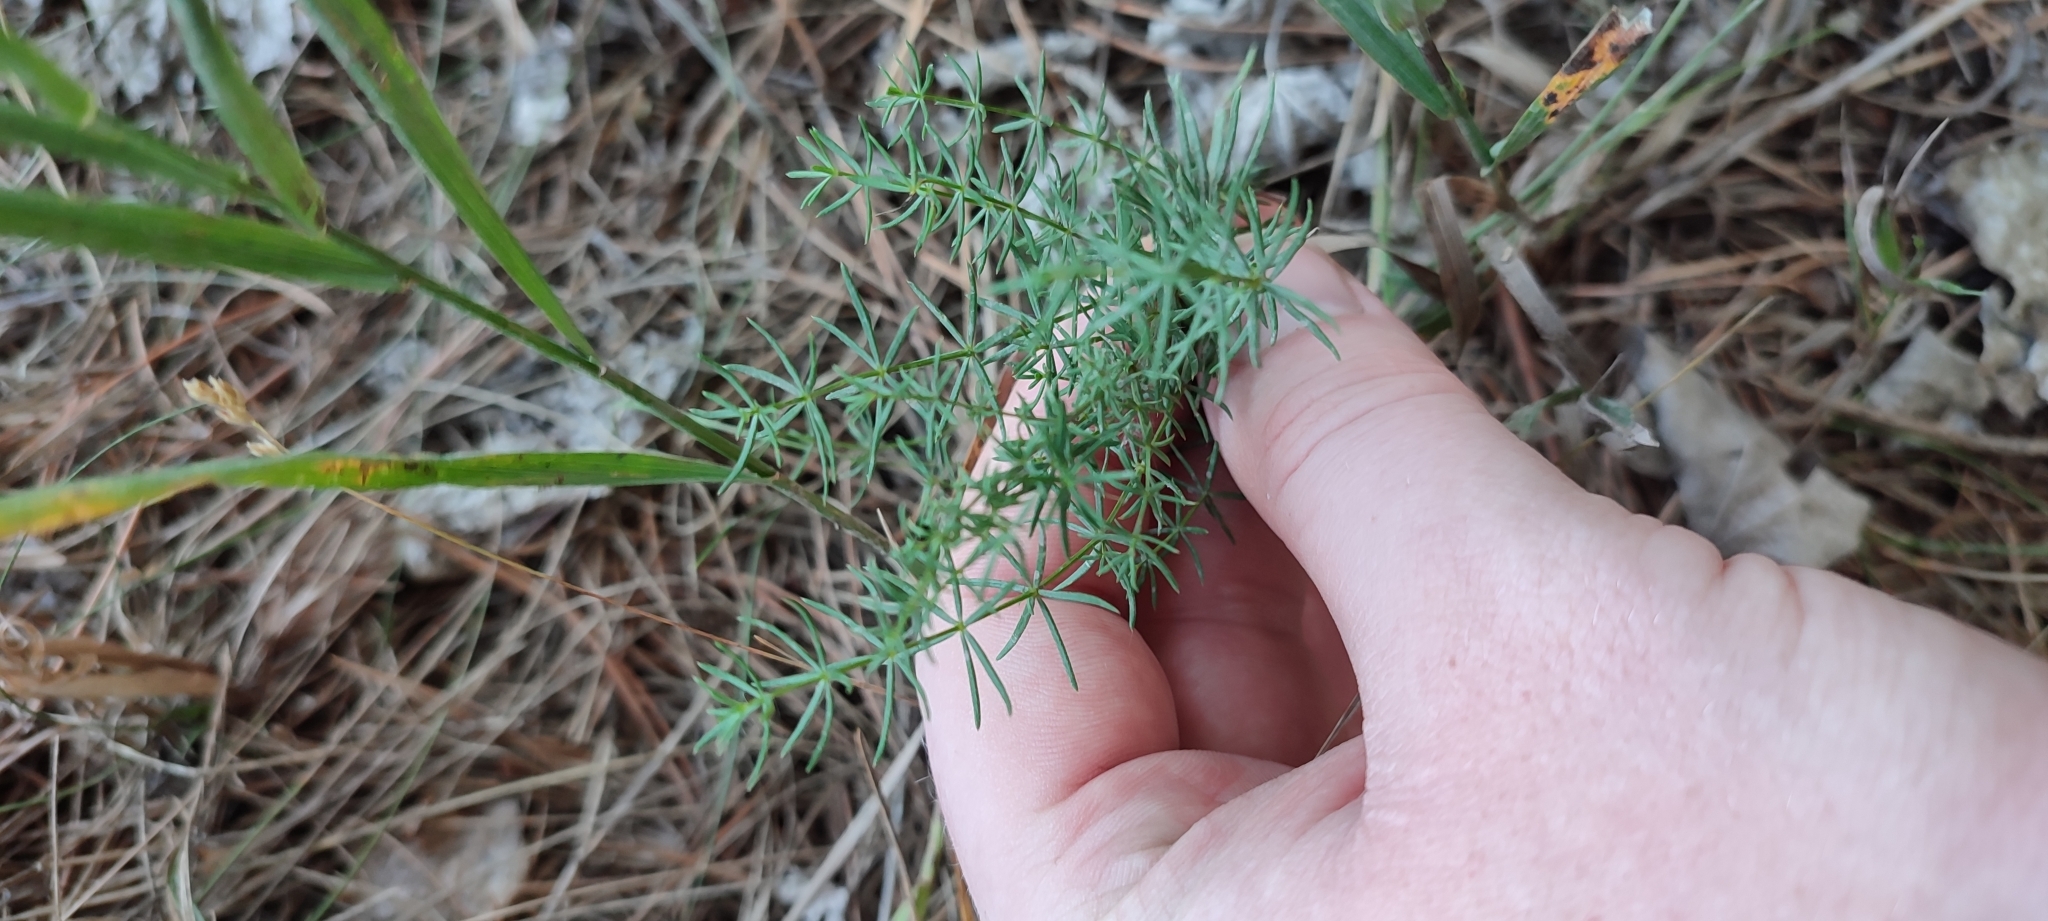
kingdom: Plantae
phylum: Tracheophyta
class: Magnoliopsida
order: Gentianales
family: Rubiaceae
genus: Galium
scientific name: Galium verum
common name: Lady's bedstraw
